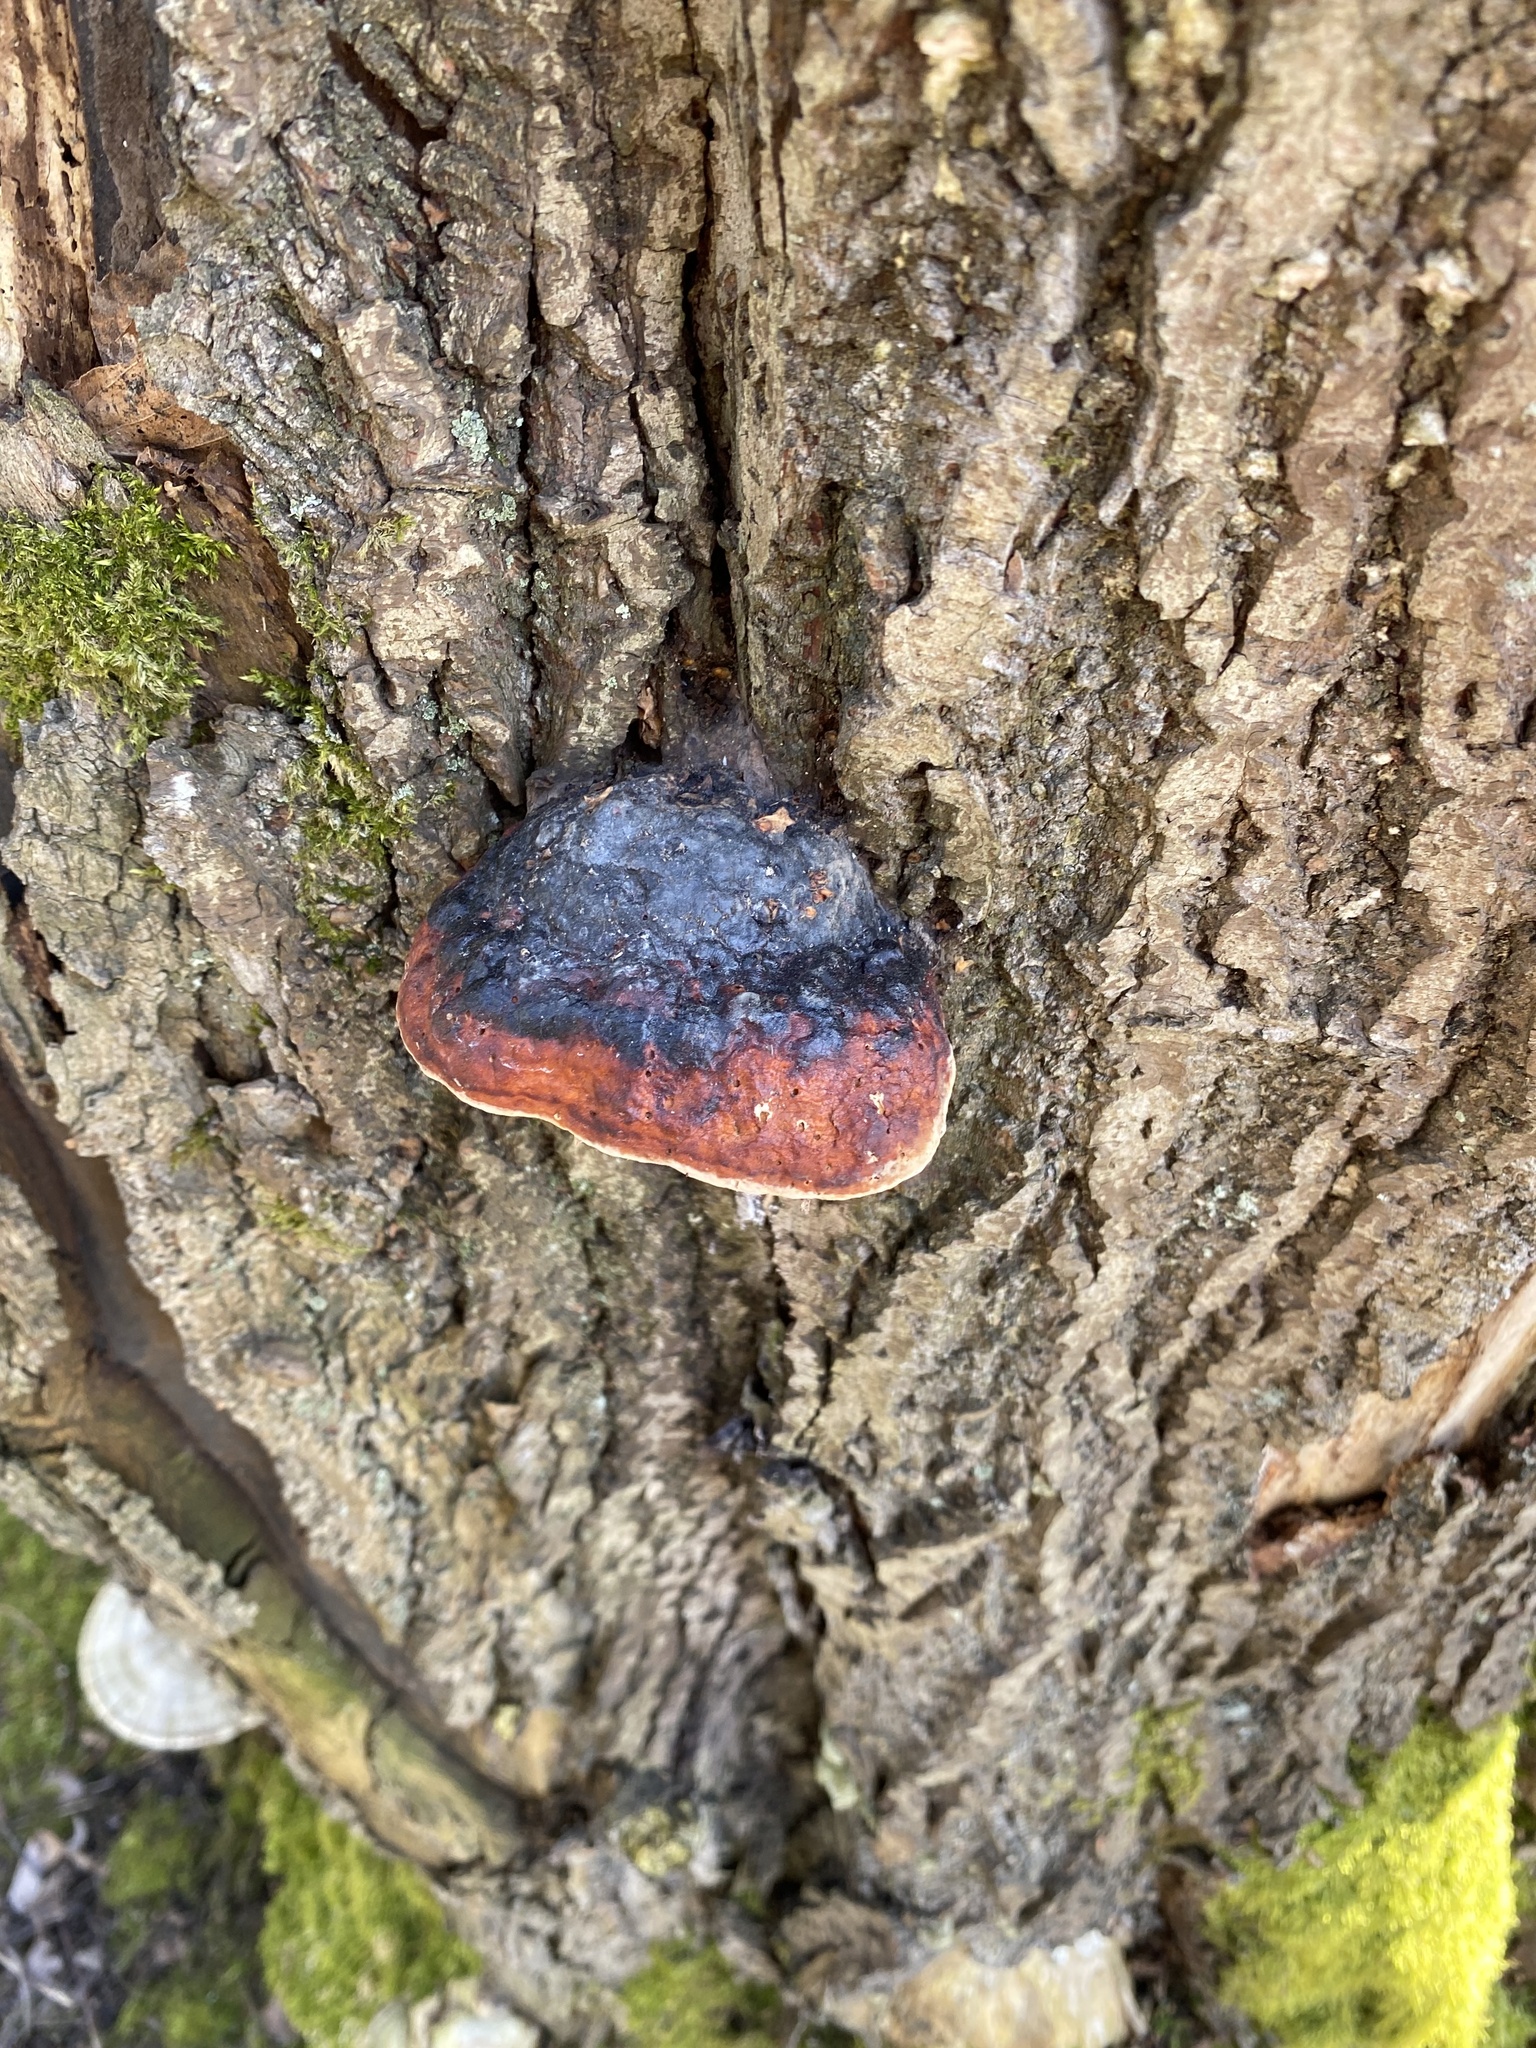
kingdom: Fungi
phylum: Basidiomycota
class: Agaricomycetes
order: Polyporales
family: Fomitopsidaceae
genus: Fomitopsis
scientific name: Fomitopsis pinicola
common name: Red-belted bracket
